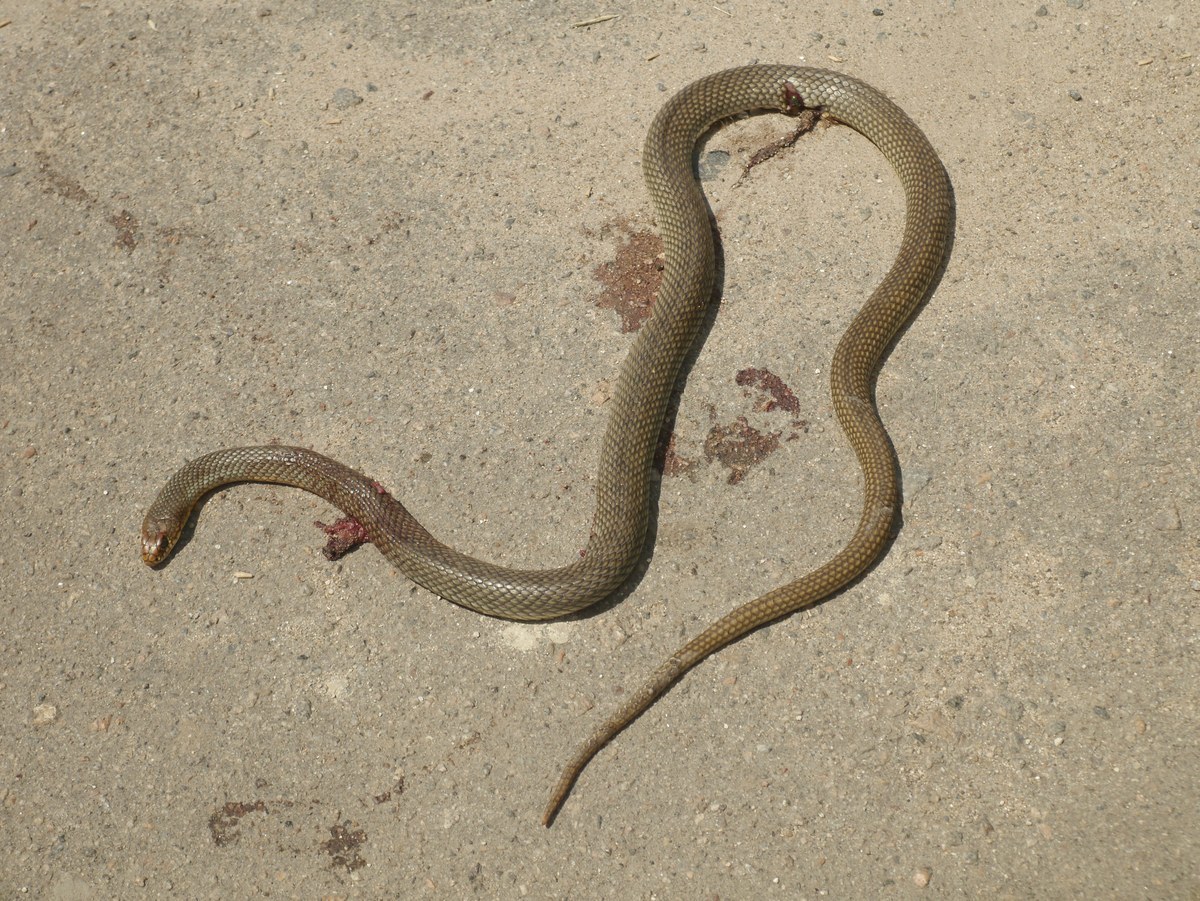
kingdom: Animalia
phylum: Chordata
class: Squamata
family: Colubridae
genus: Dolichophis
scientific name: Dolichophis caspius
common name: Large whip snake
